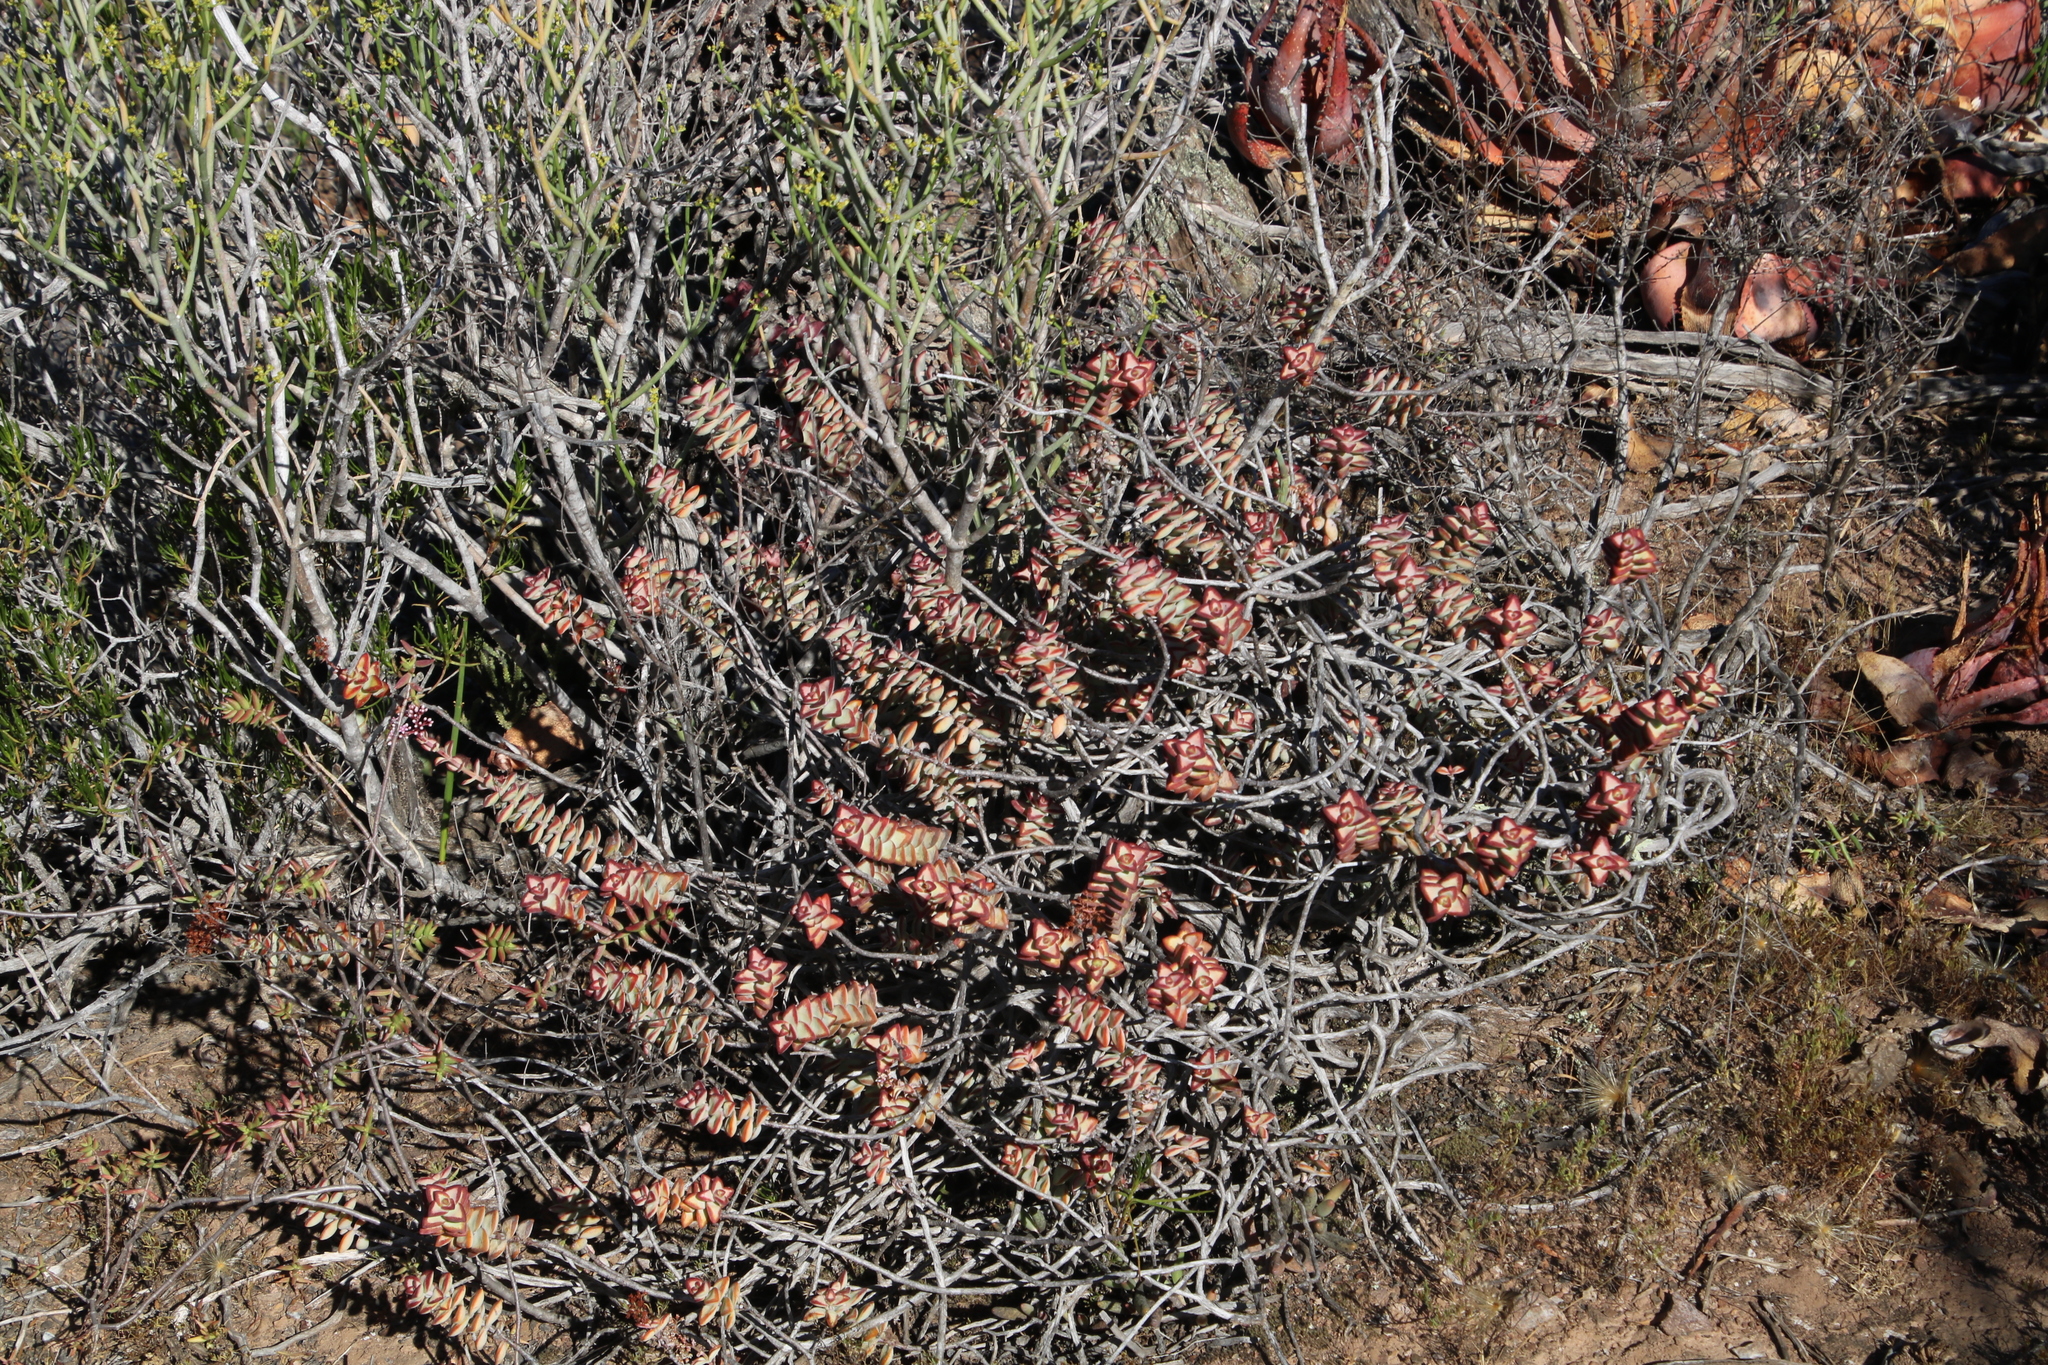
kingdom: Plantae
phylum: Tracheophyta
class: Magnoliopsida
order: Saxifragales
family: Crassulaceae
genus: Crassula
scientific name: Crassula rupestris
